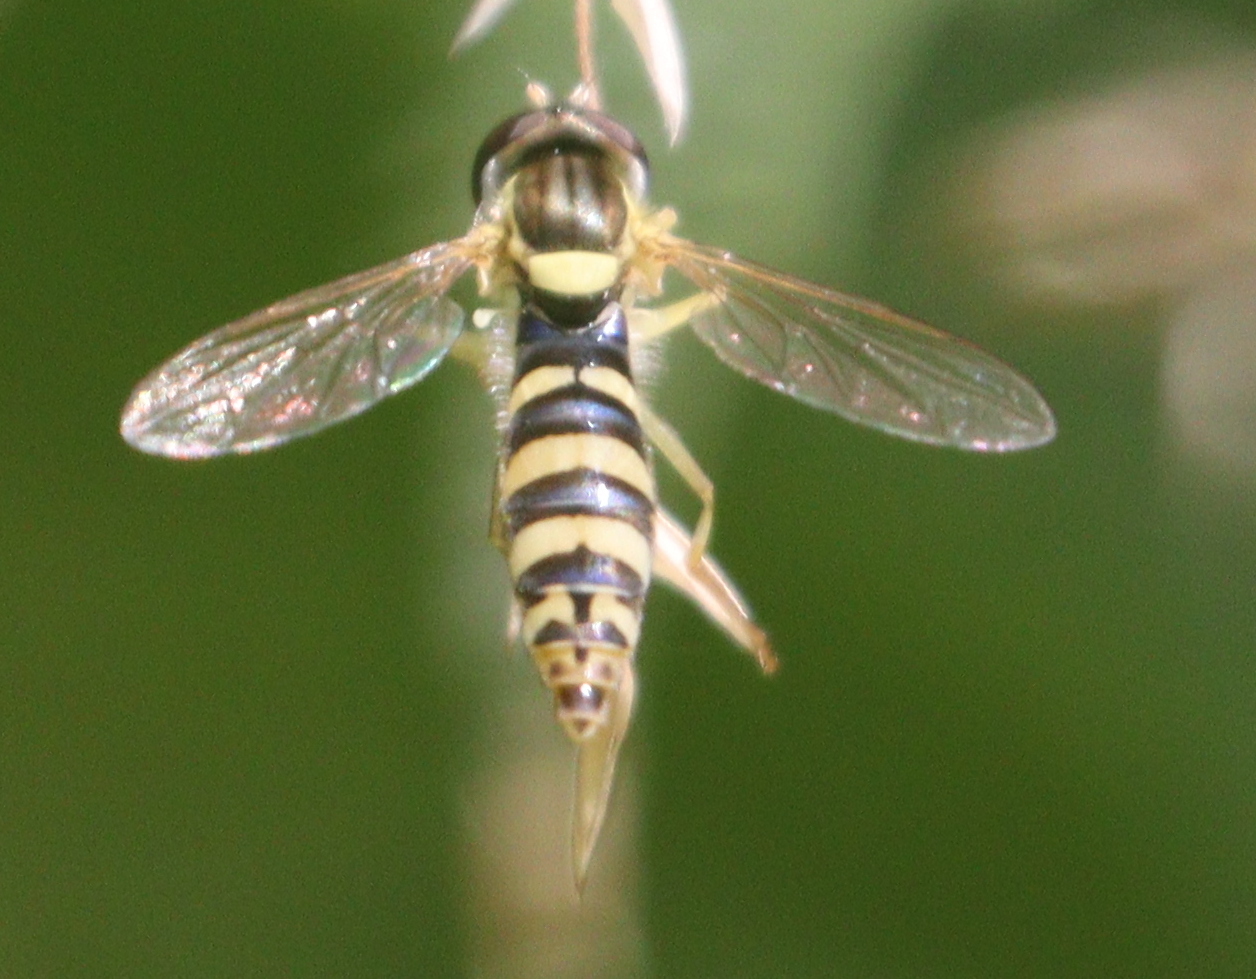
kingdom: Animalia
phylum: Arthropoda
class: Insecta
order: Diptera
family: Syrphidae
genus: Sphaerophoria
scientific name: Sphaerophoria
